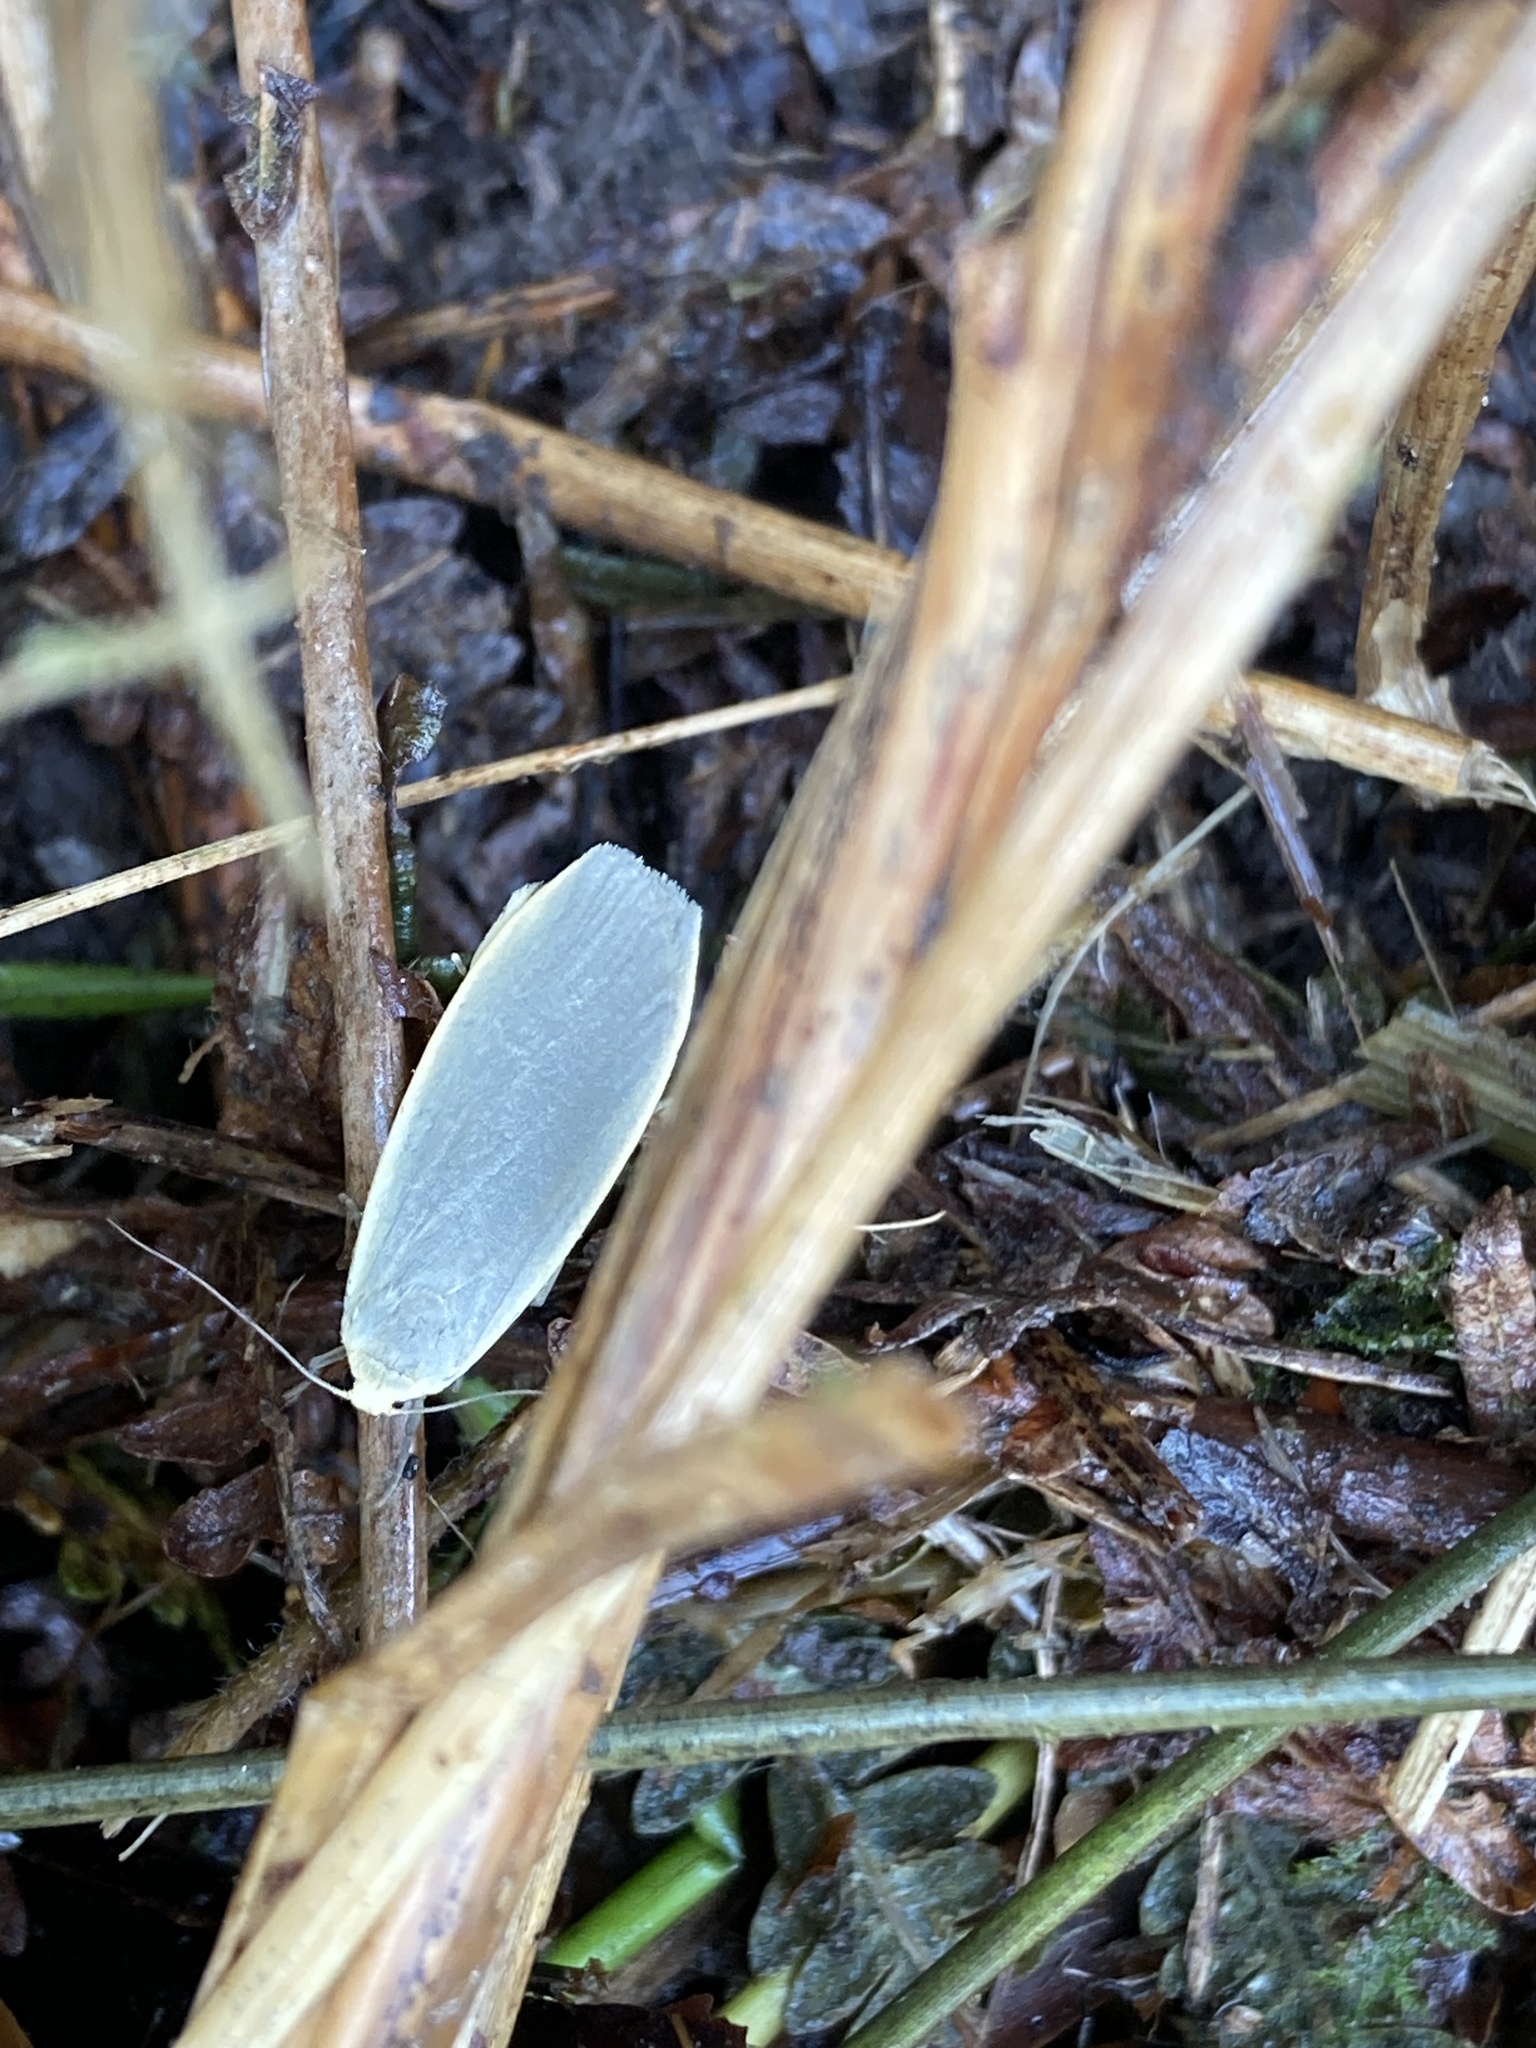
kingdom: Animalia
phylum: Arthropoda
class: Insecta
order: Lepidoptera
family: Erebidae
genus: Collita
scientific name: Collita griseola
